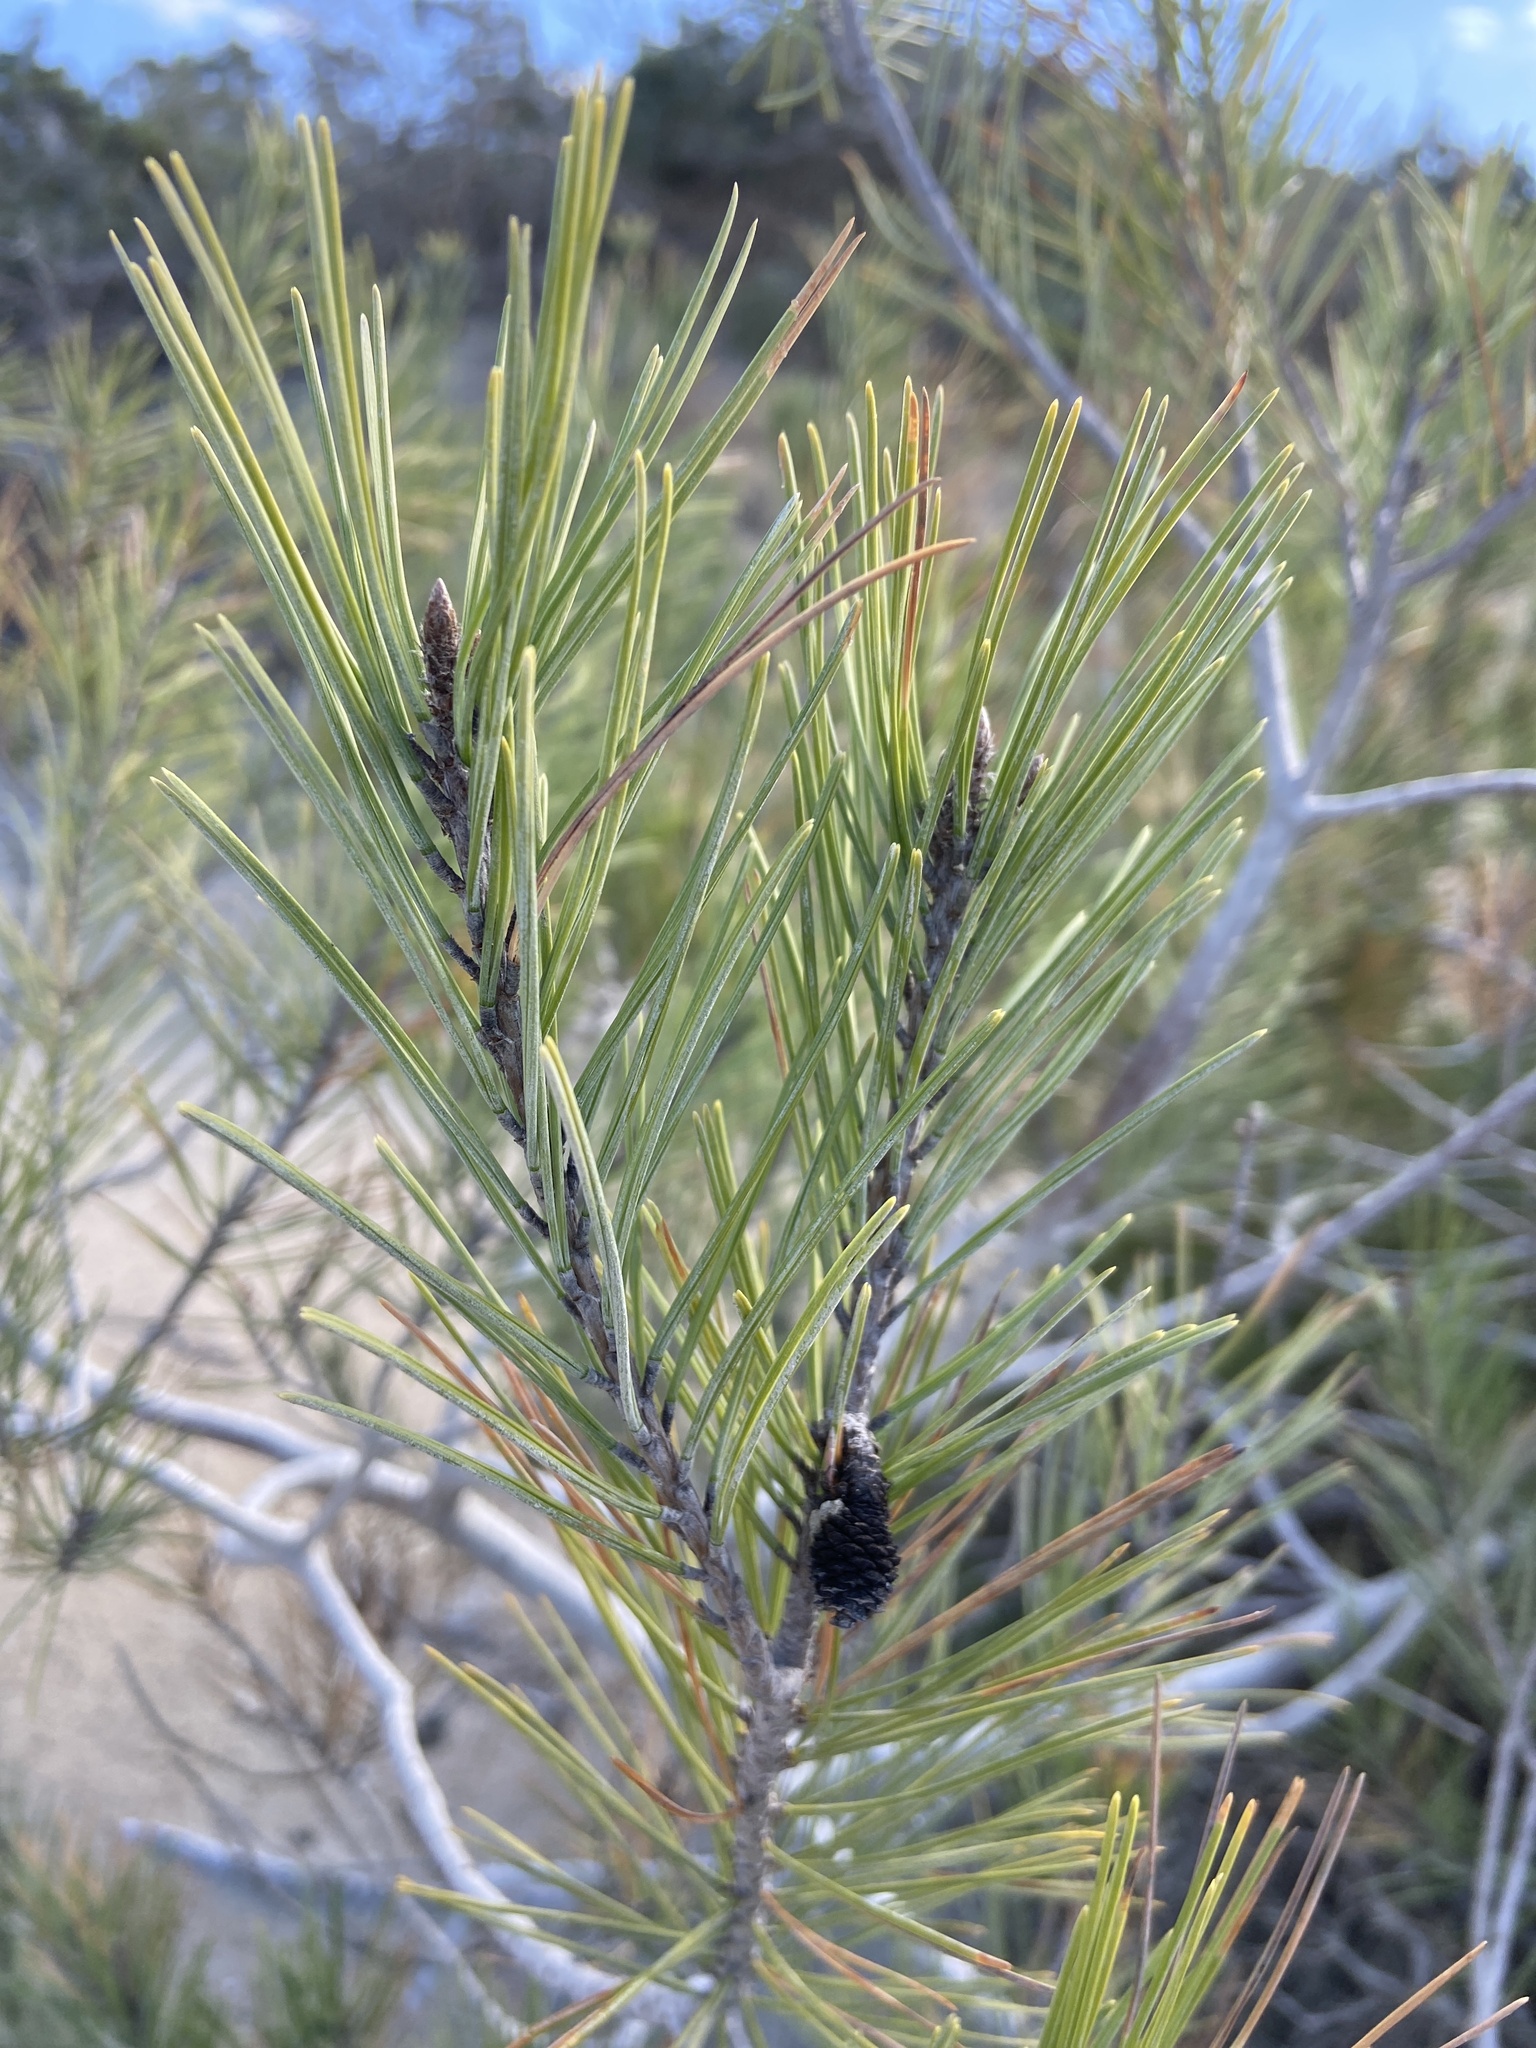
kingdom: Plantae
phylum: Tracheophyta
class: Pinopsida
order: Pinales
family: Pinaceae
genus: Pinus
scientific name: Pinus halepensis
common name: Aleppo pine
